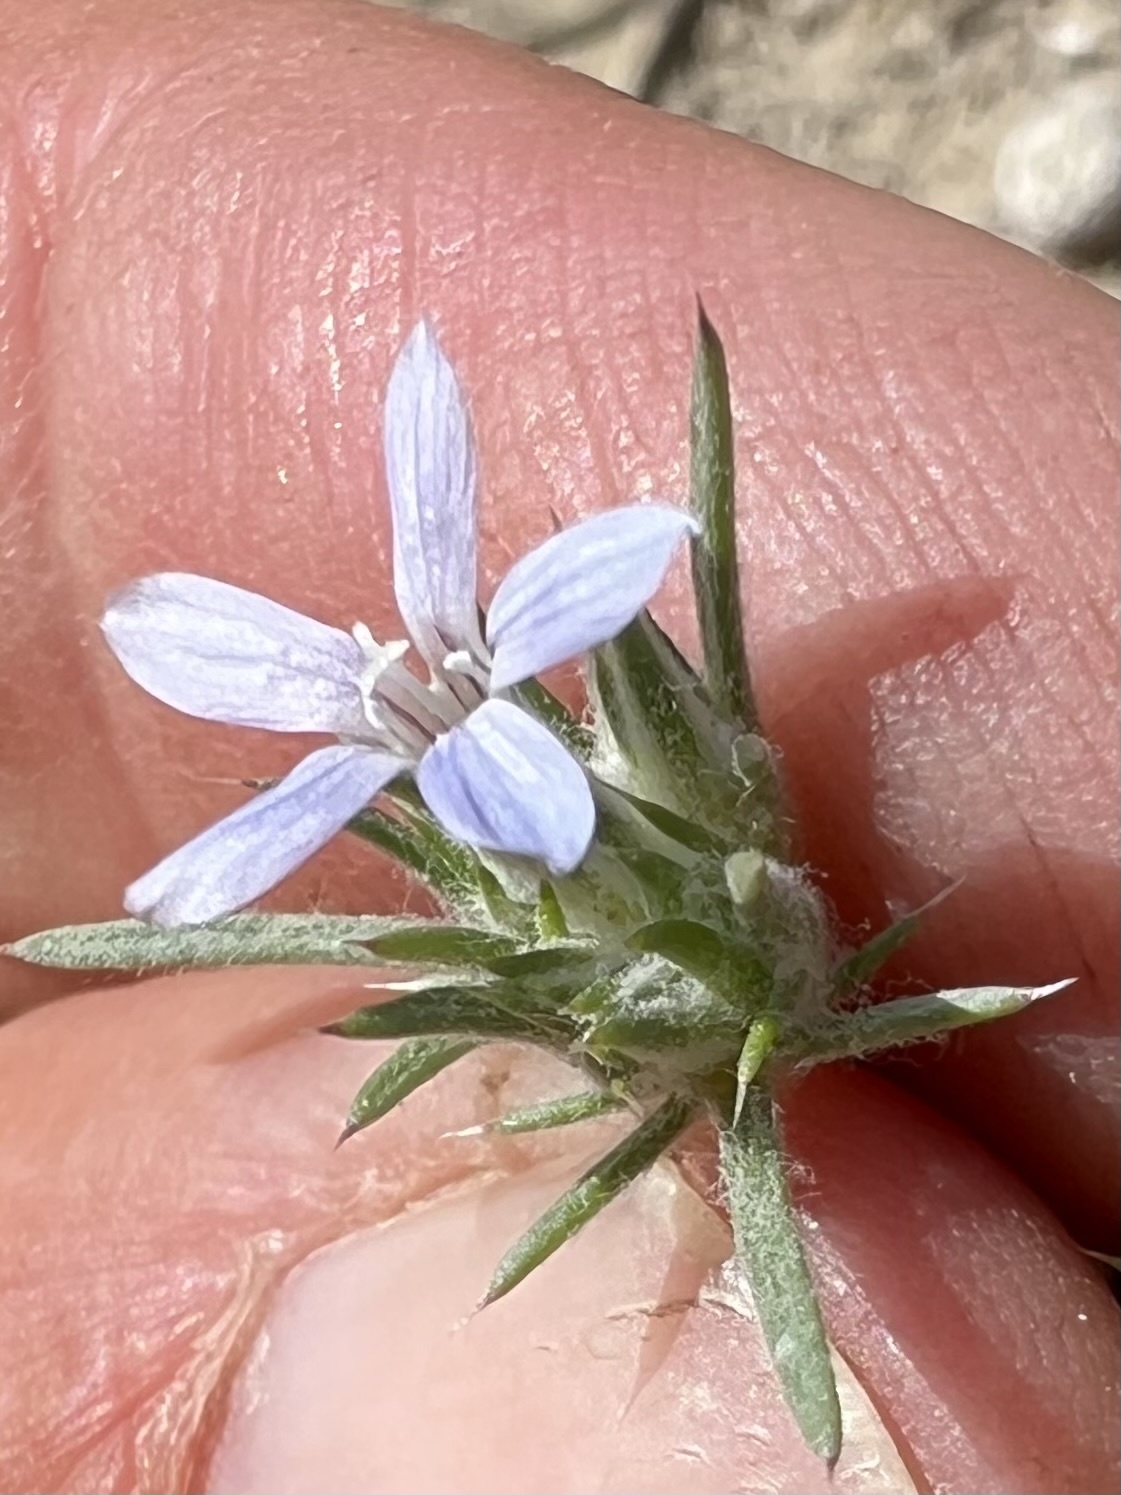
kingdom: Plantae
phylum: Tracheophyta
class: Magnoliopsida
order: Ericales
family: Polemoniaceae
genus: Eriastrum
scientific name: Eriastrum wilcoxii
